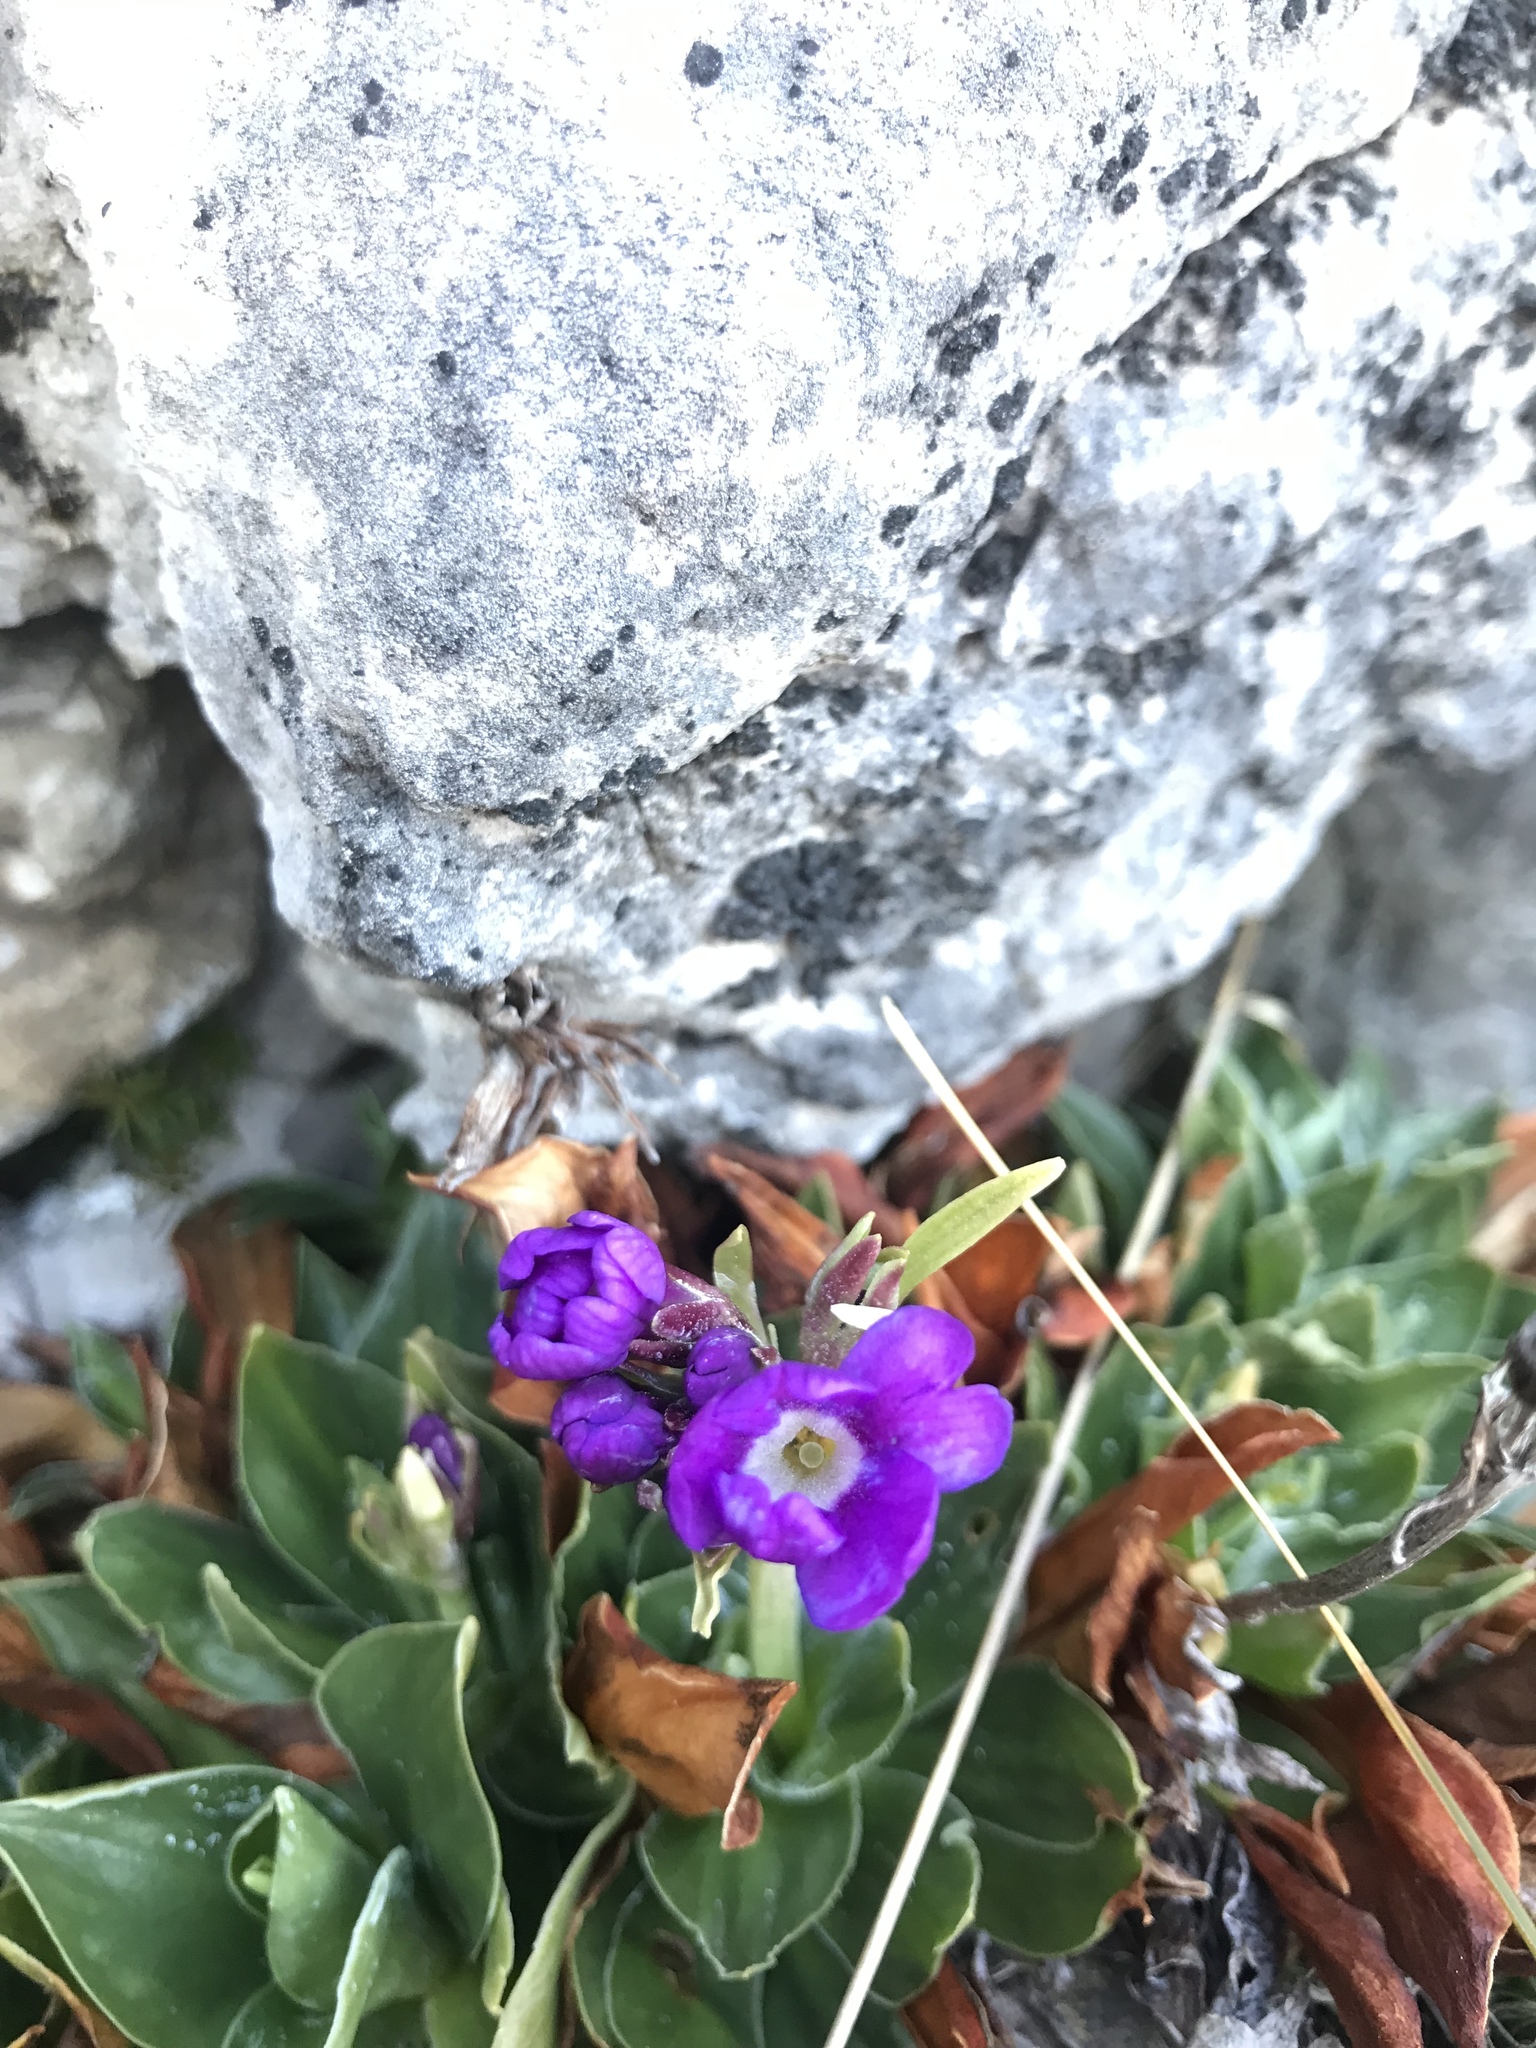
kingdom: Plantae
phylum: Tracheophyta
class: Magnoliopsida
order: Ericales
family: Primulaceae
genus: Primula
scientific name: Primula glaucescens
